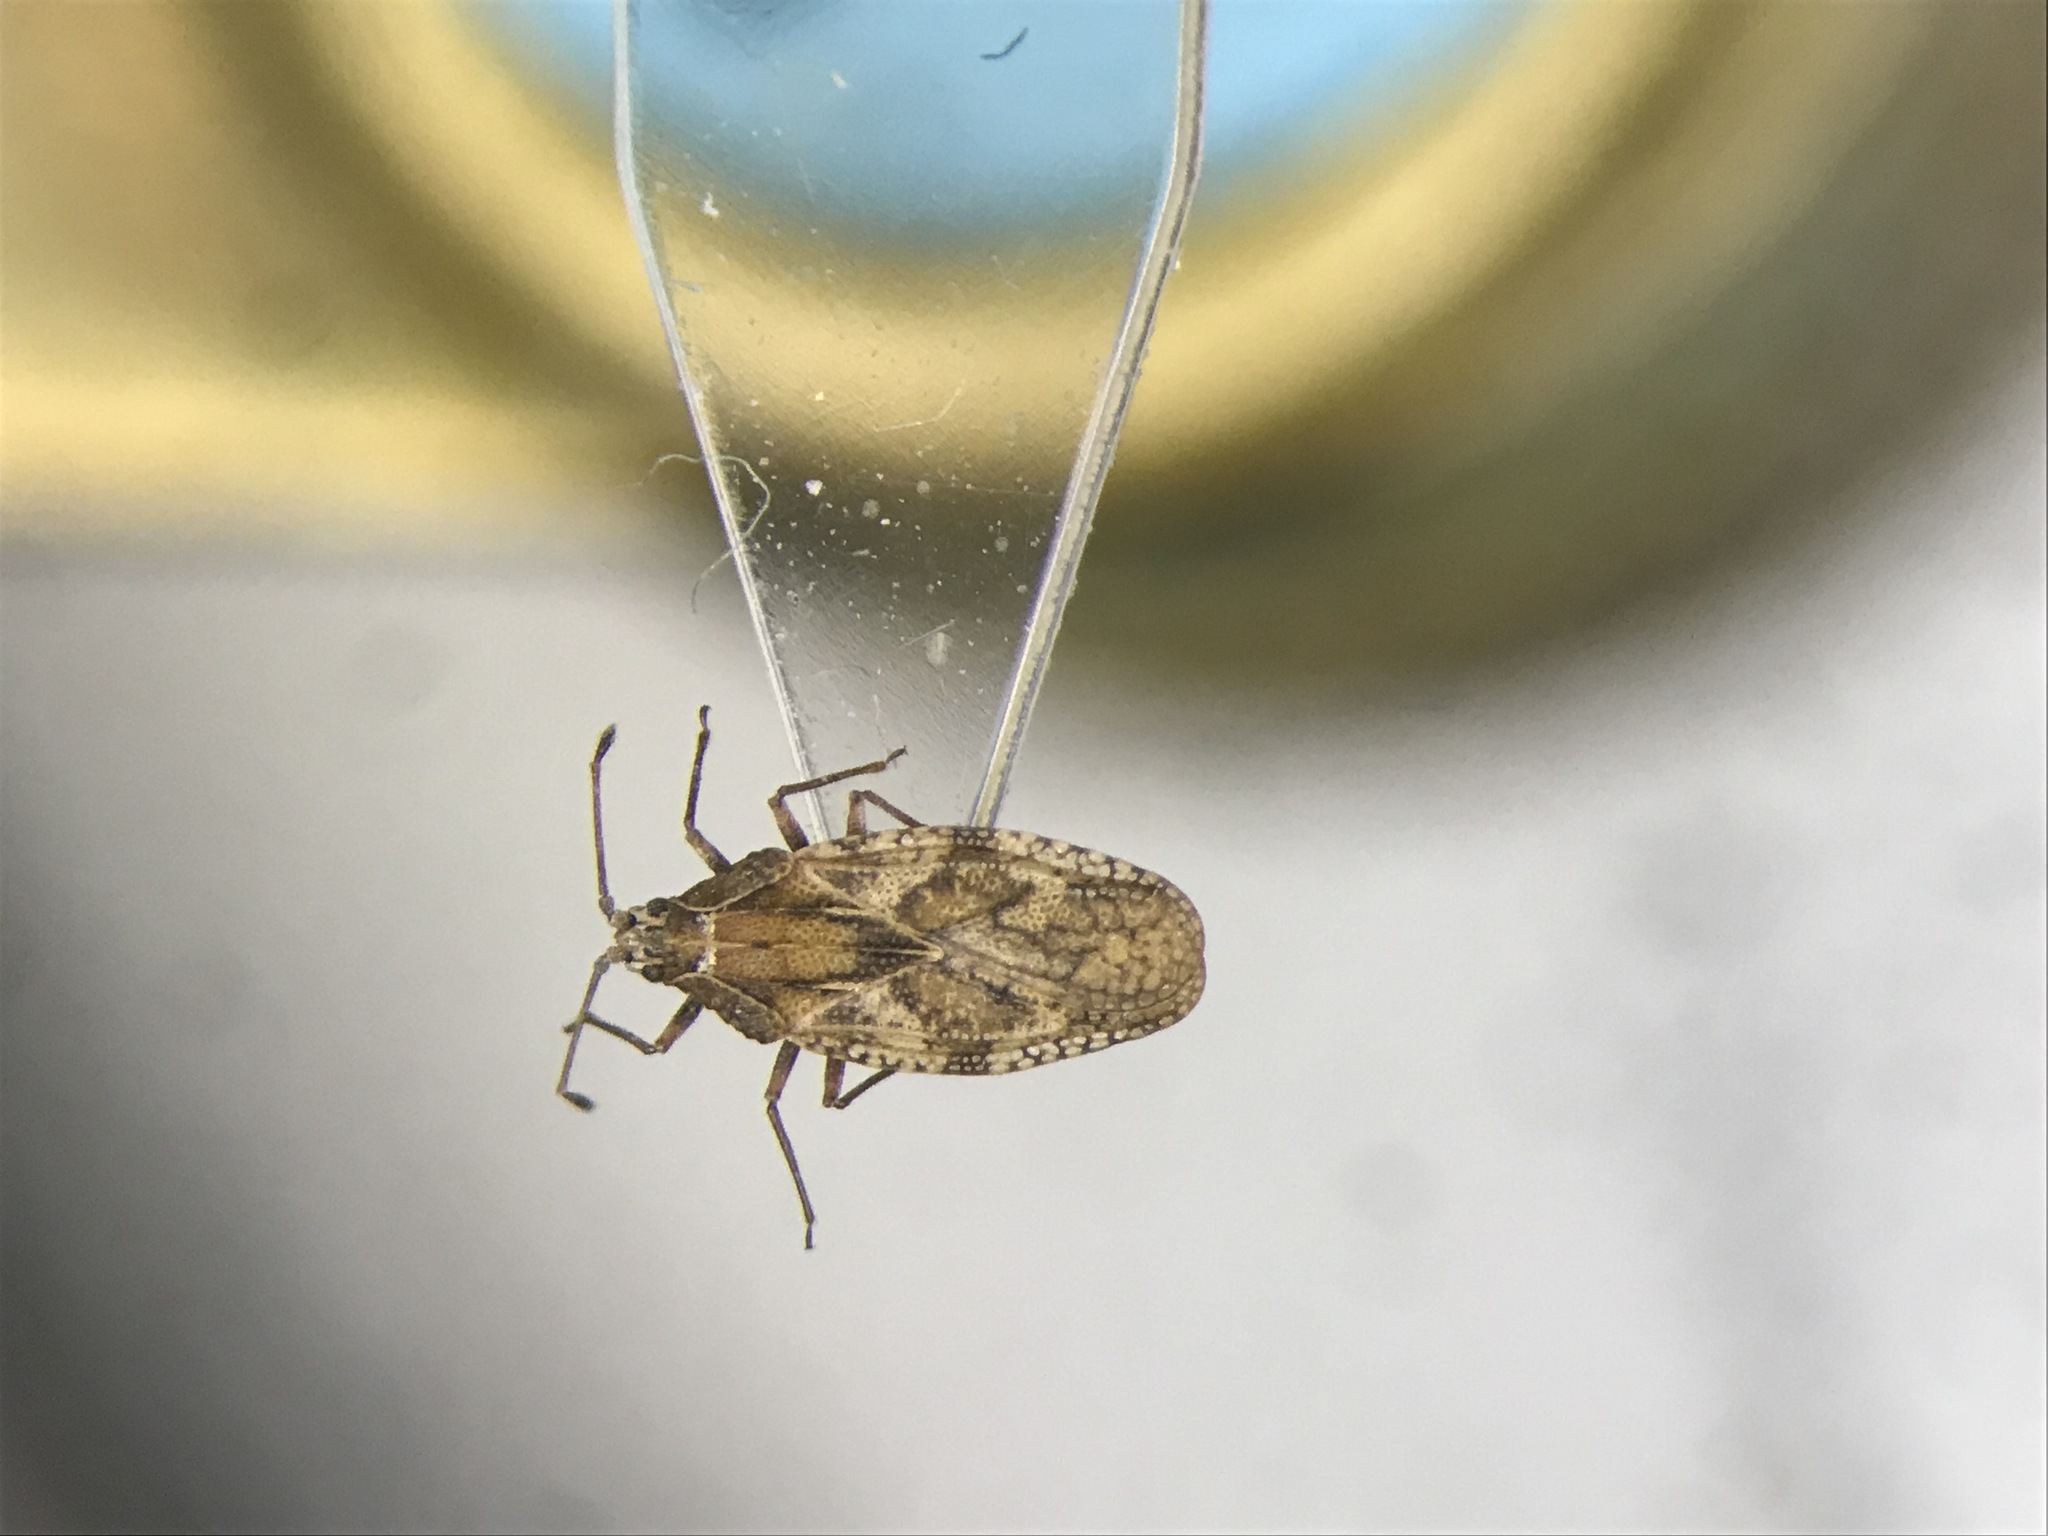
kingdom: Animalia
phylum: Arthropoda
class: Insecta
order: Hemiptera
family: Tingidae
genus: Physatocheila
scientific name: Physatocheila variegata
